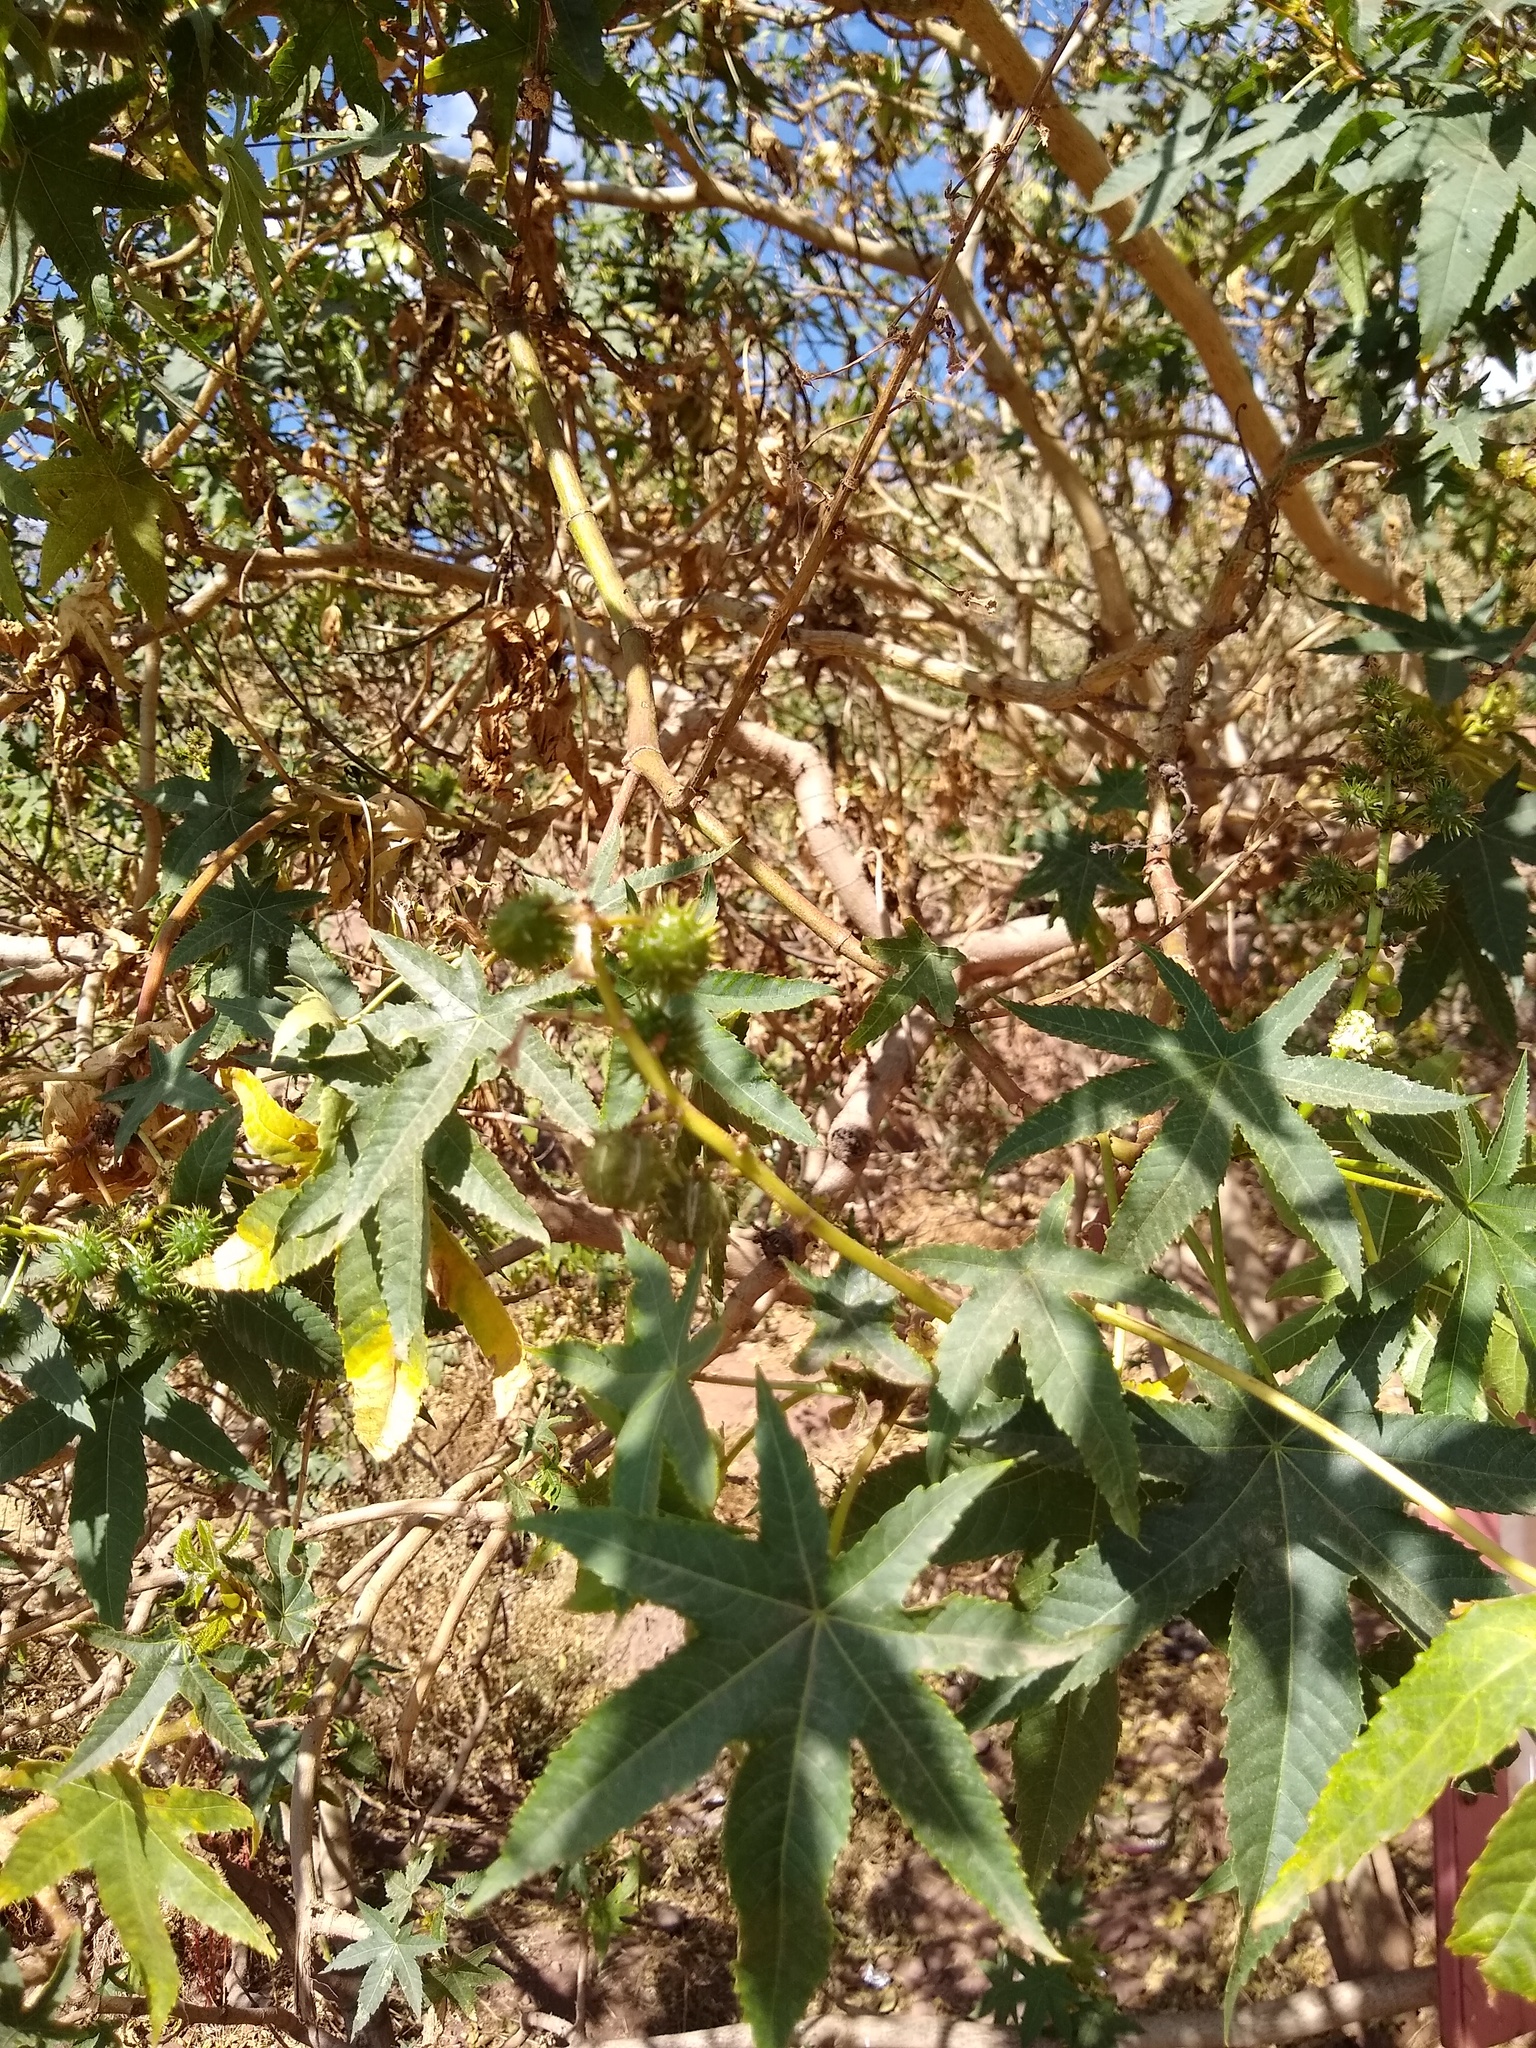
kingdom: Plantae
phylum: Tracheophyta
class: Magnoliopsida
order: Malpighiales
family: Euphorbiaceae
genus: Ricinus
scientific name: Ricinus communis
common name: Castor-oil-plant
